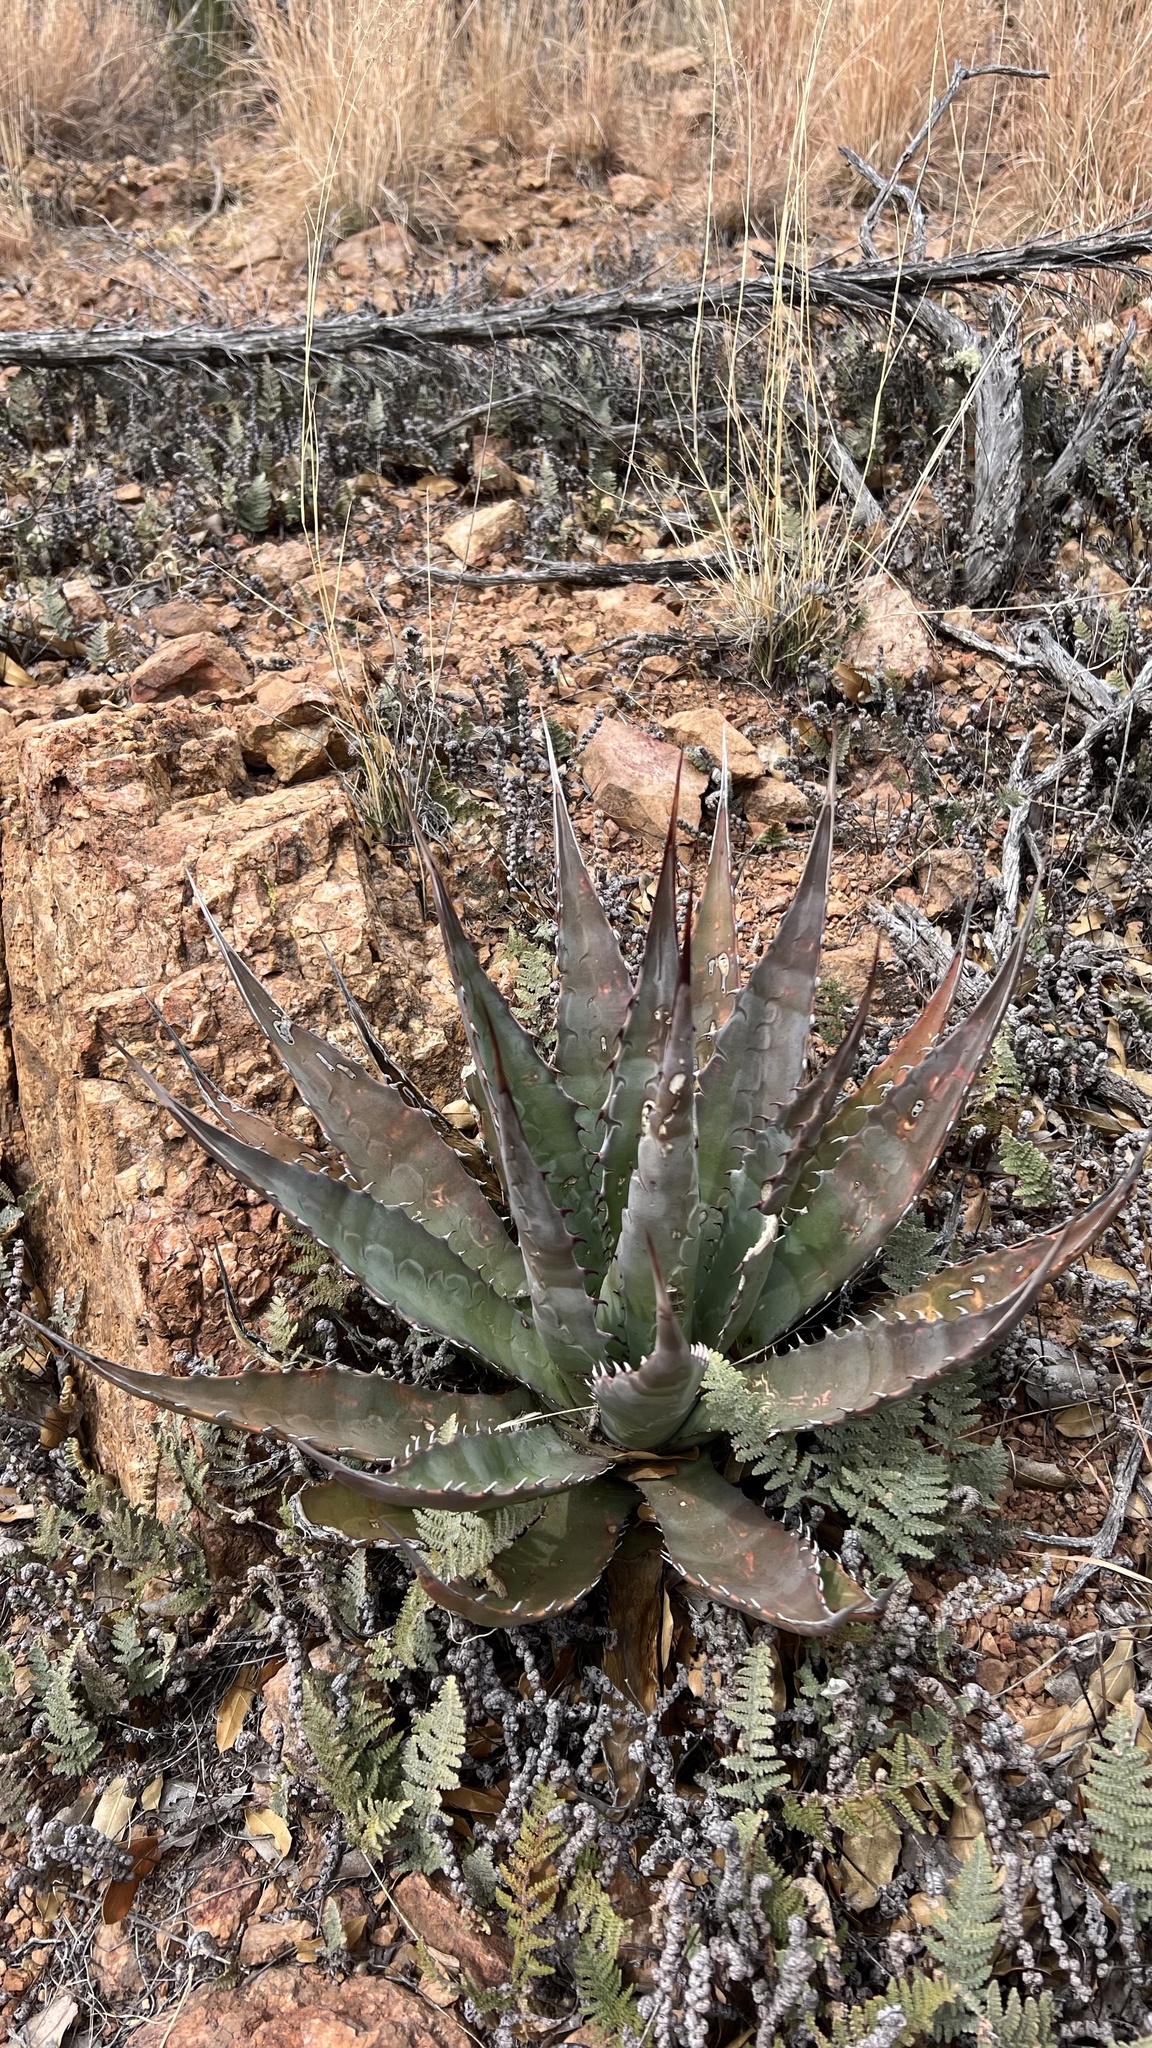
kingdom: Plantae
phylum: Tracheophyta
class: Liliopsida
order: Asparagales
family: Asparagaceae
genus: Agave
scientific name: Agave palmeri
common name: Palmer agave
